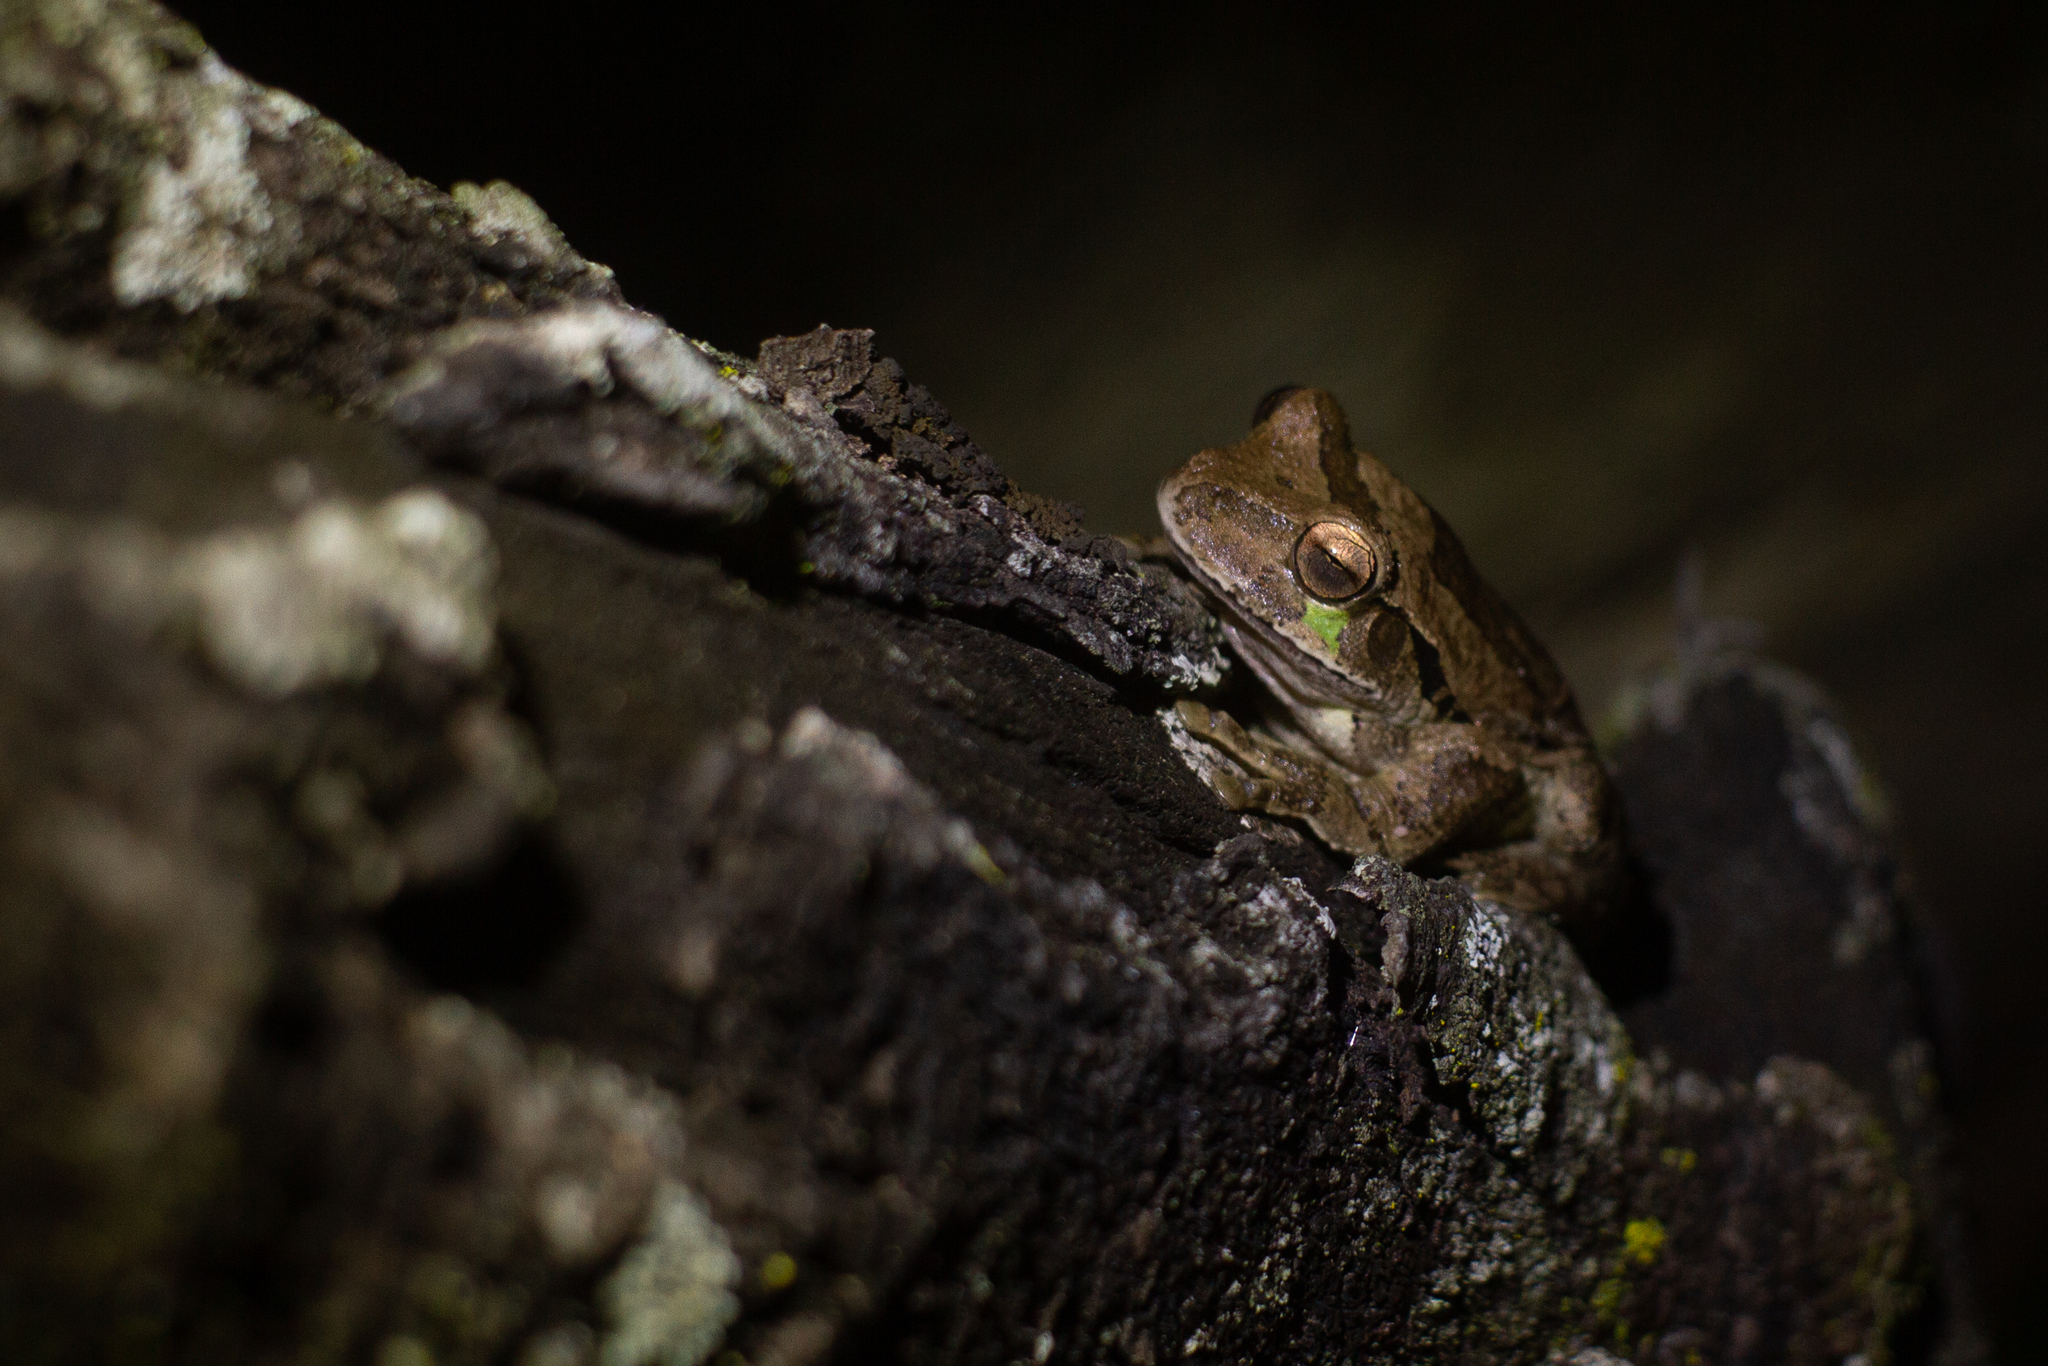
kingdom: Animalia
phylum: Chordata
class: Amphibia
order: Anura
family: Hylidae
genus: Smilisca
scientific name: Smilisca baudinii
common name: Mexican smilisca
